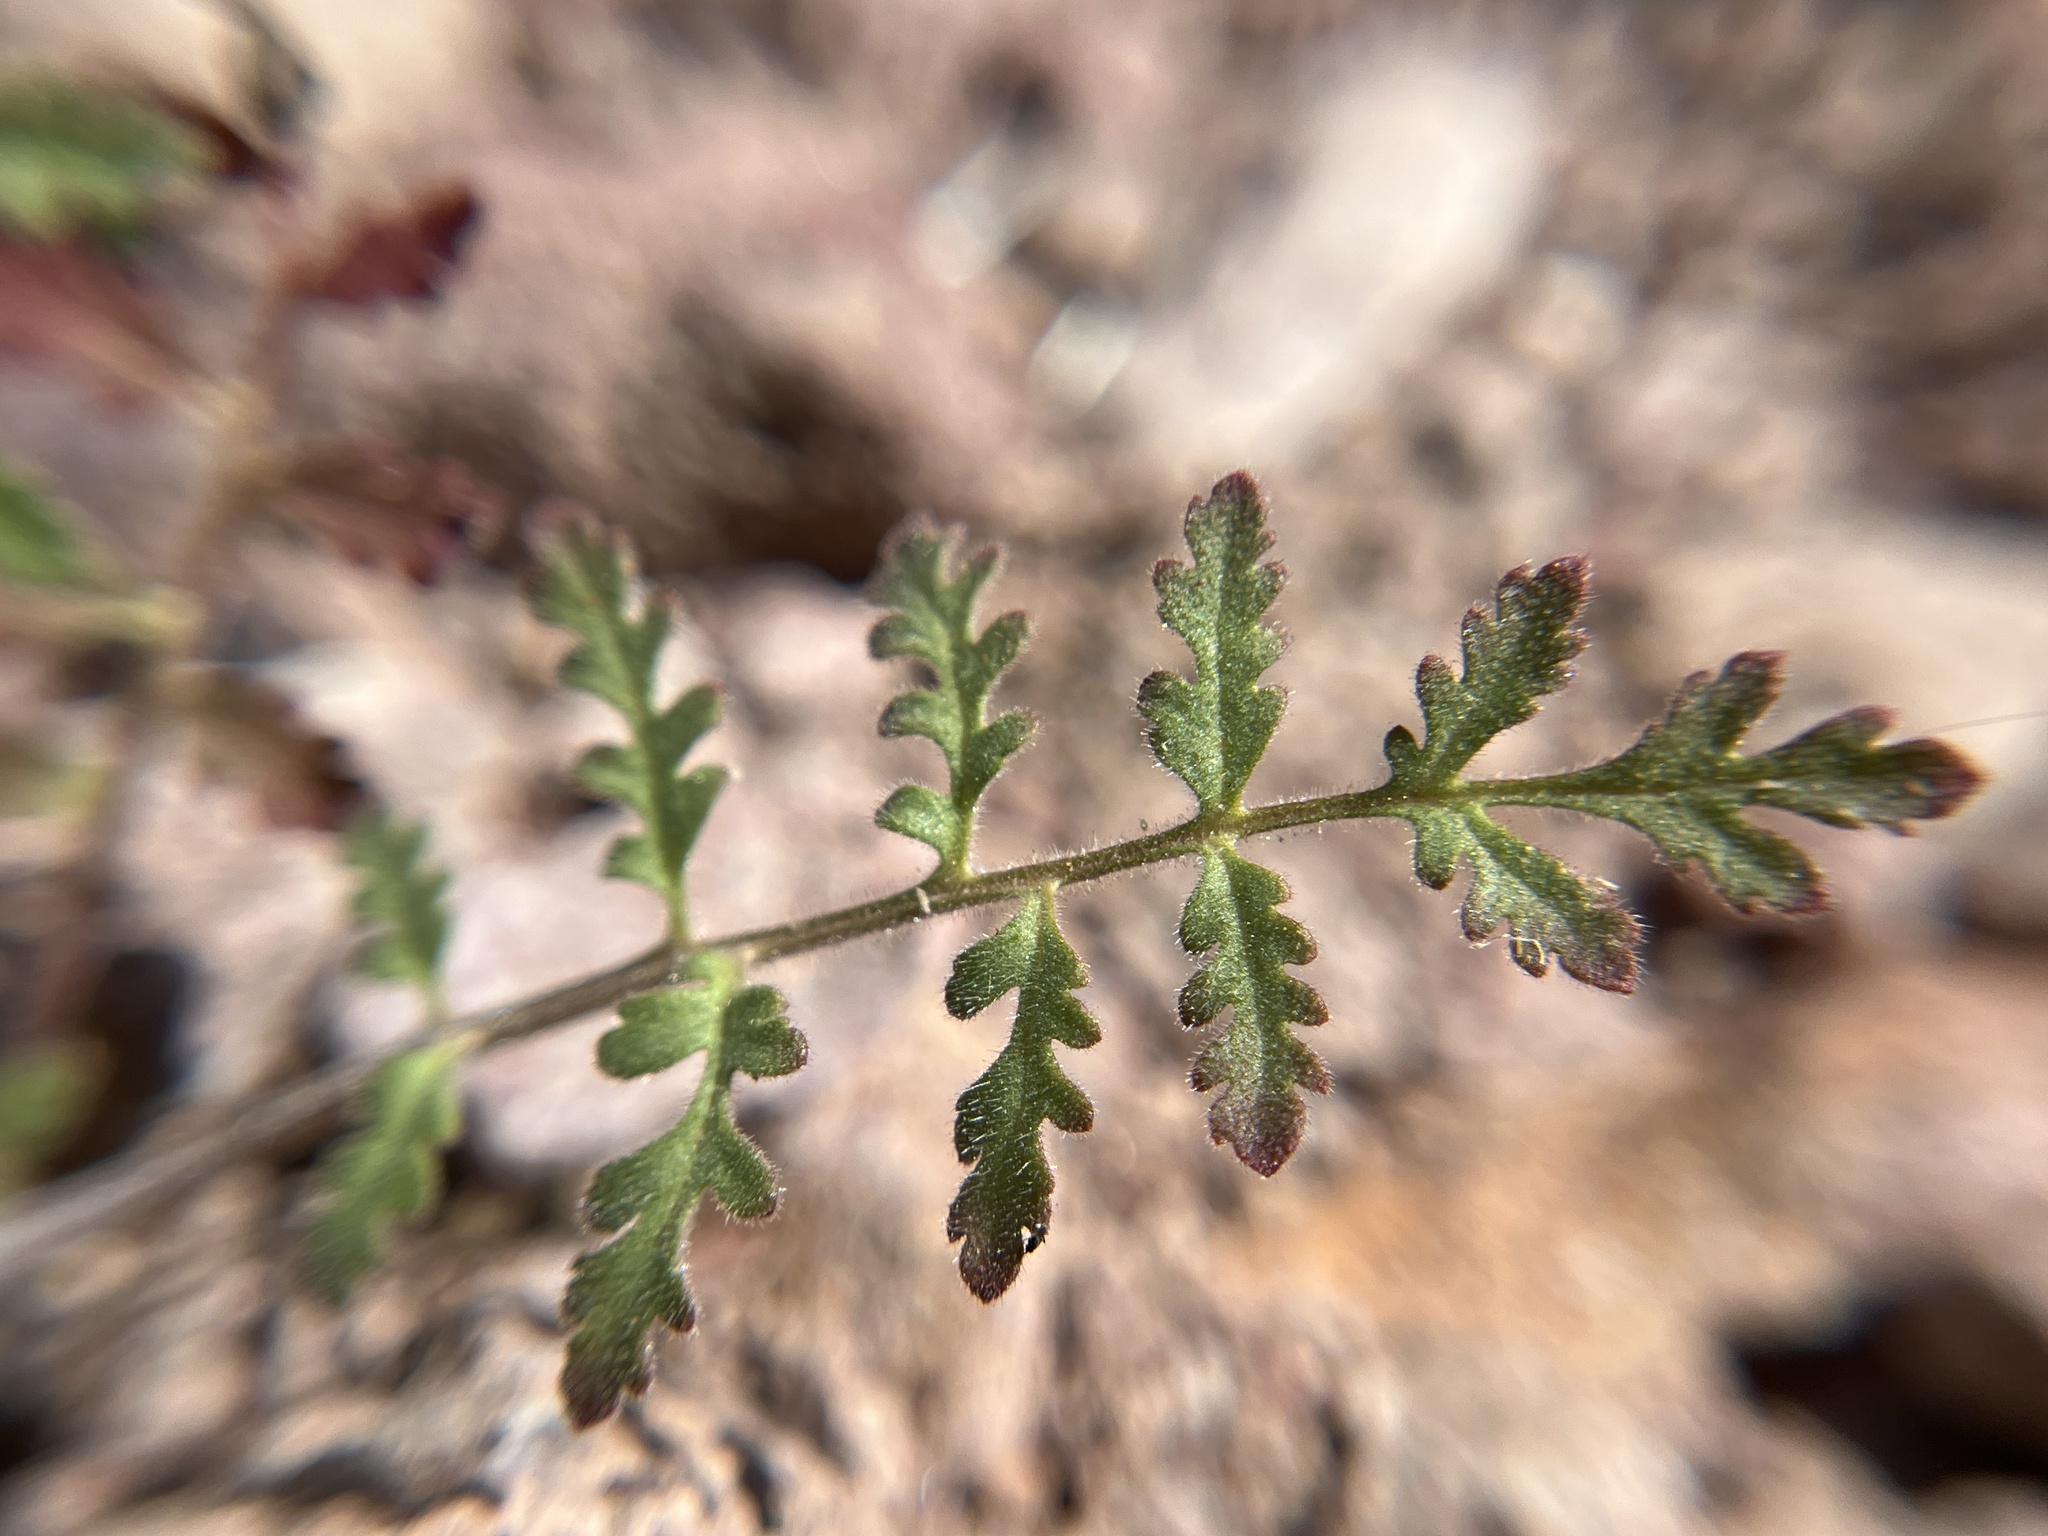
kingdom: Plantae
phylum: Tracheophyta
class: Magnoliopsida
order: Boraginales
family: Hydrophyllaceae
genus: Phacelia
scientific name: Phacelia cryptantha
